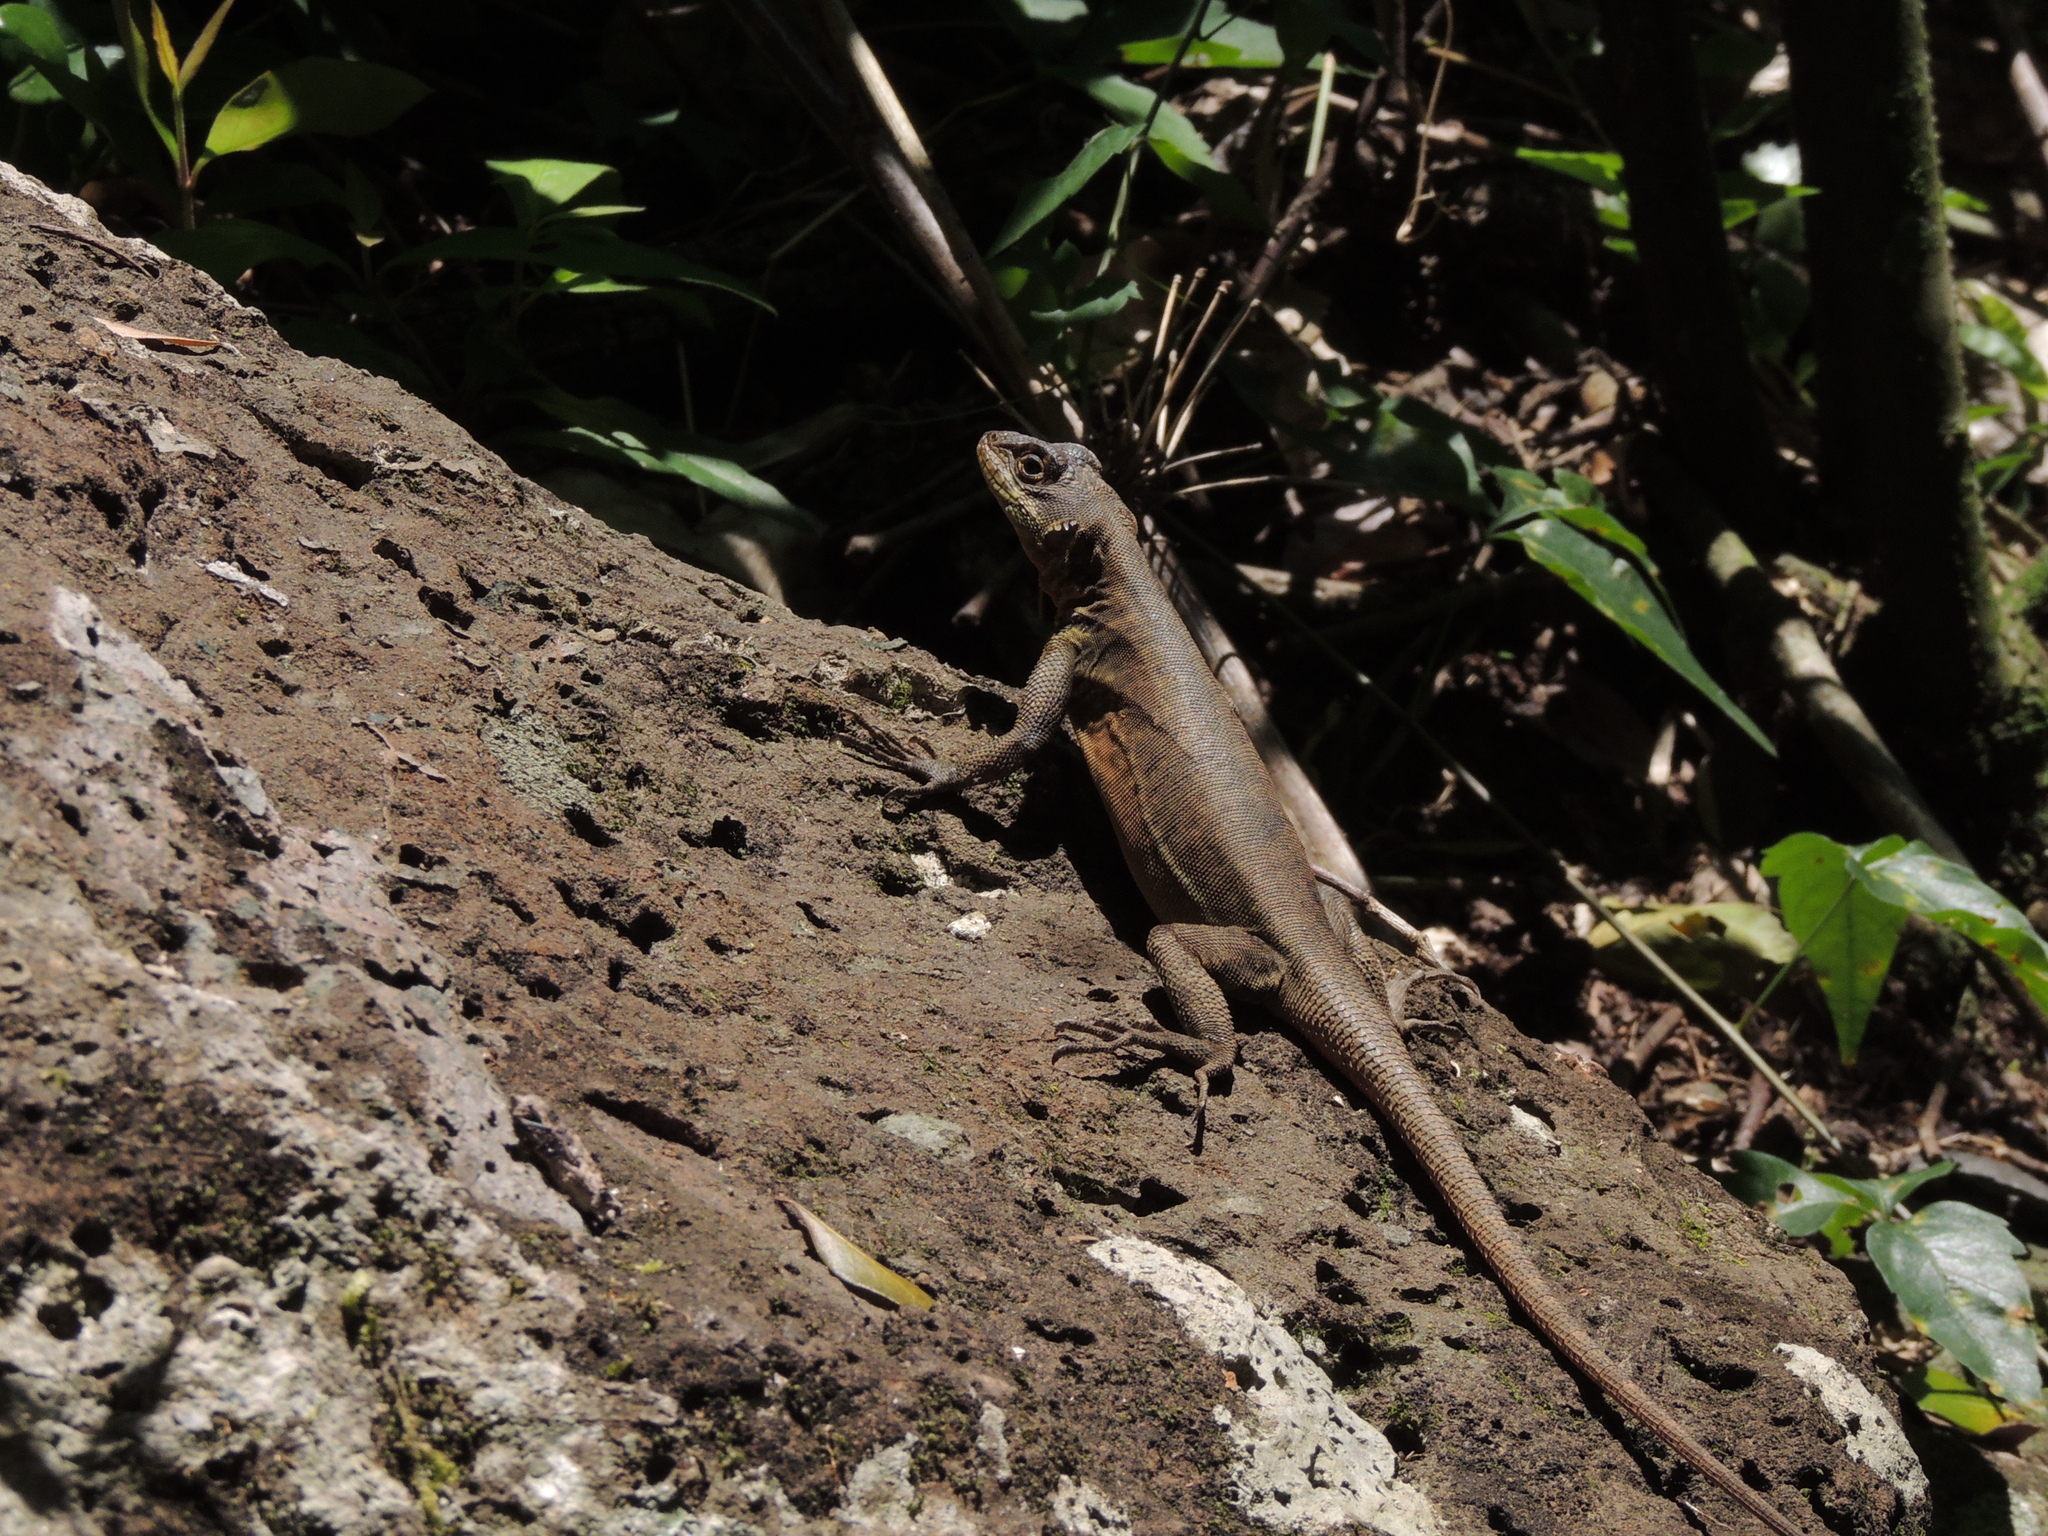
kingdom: Animalia
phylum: Chordata
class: Squamata
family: Tropiduridae
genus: Tropidurus
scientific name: Tropidurus catalanensis
